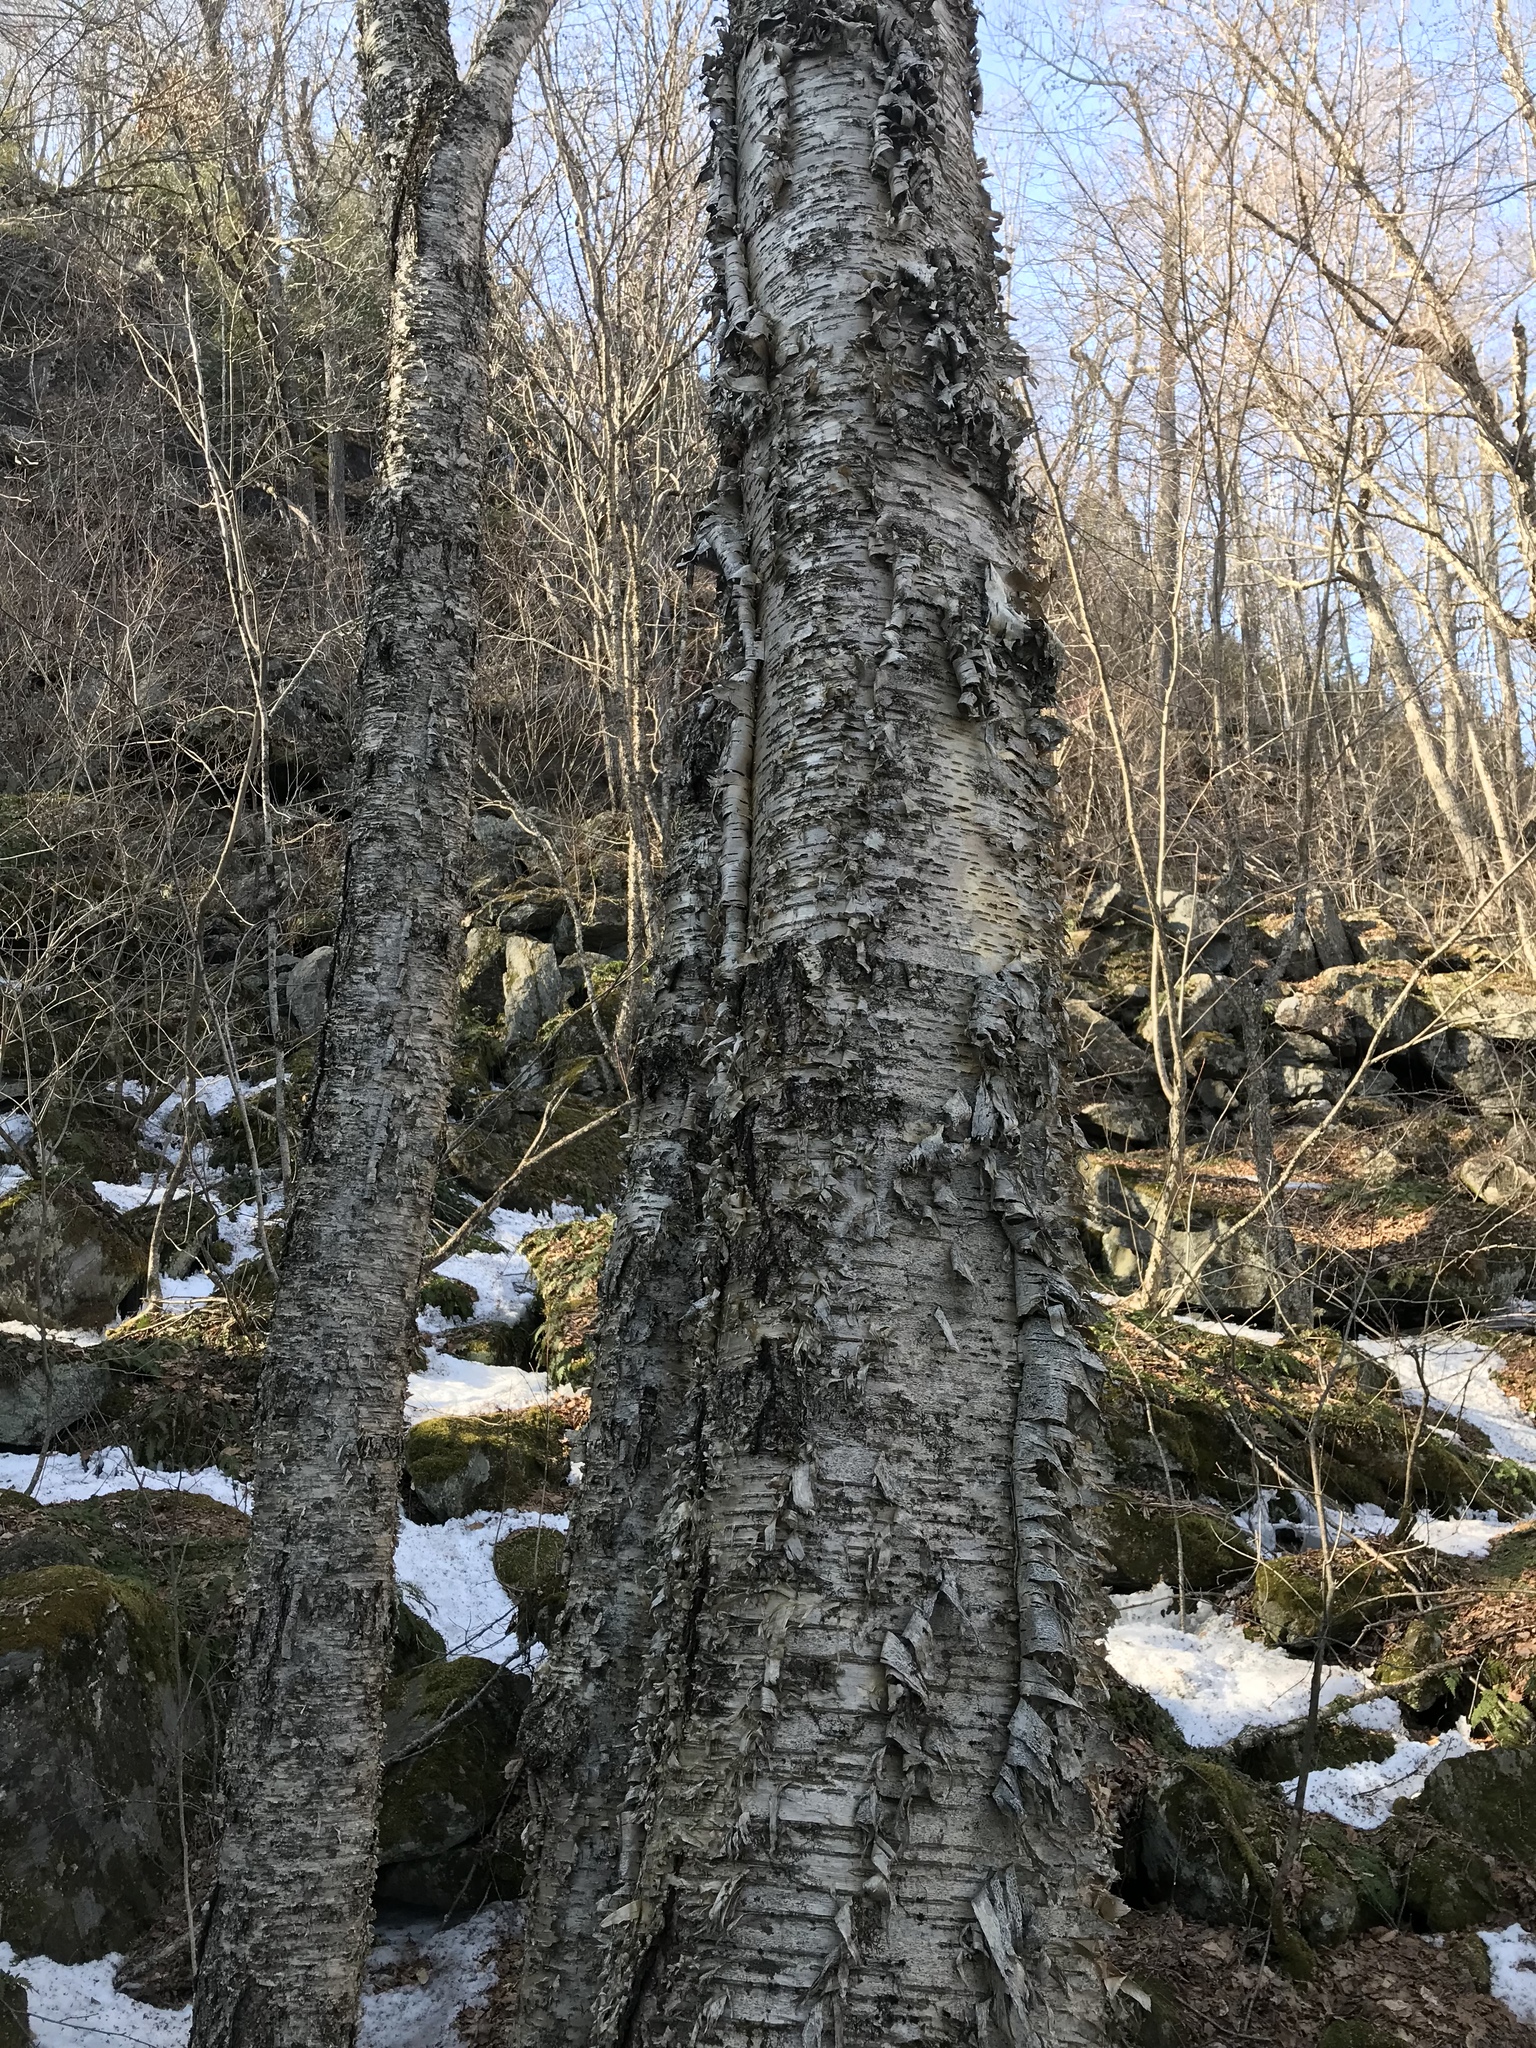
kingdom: Plantae
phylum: Tracheophyta
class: Magnoliopsida
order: Fagales
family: Betulaceae
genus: Betula
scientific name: Betula alleghaniensis
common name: Yellow birch
